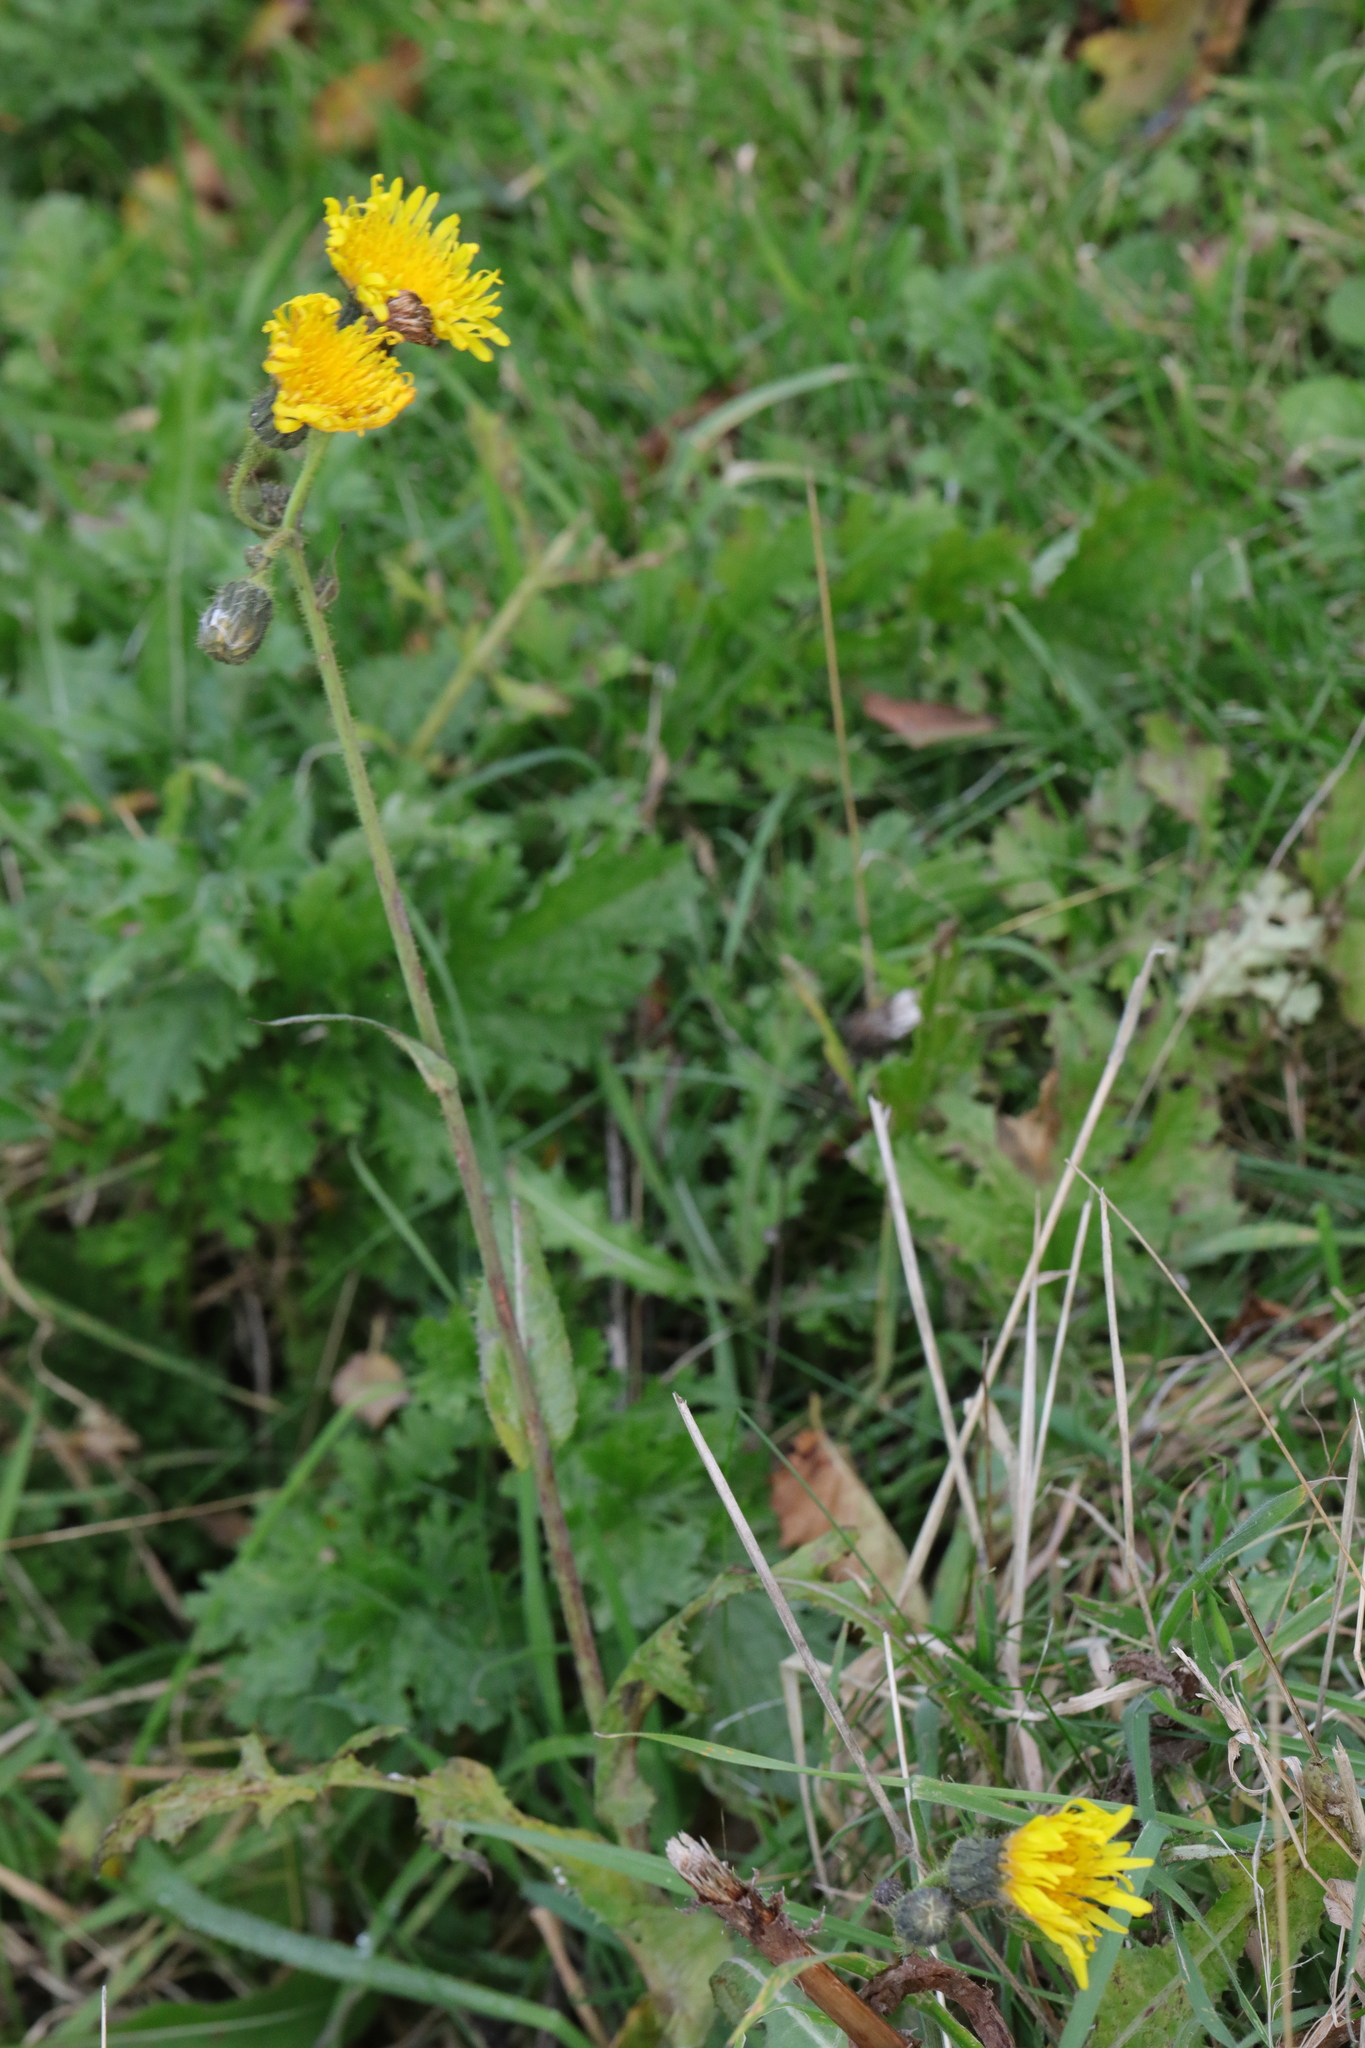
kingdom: Plantae
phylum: Tracheophyta
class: Magnoliopsida
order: Asterales
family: Asteraceae
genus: Sonchus
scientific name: Sonchus arvensis
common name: Perennial sow-thistle
